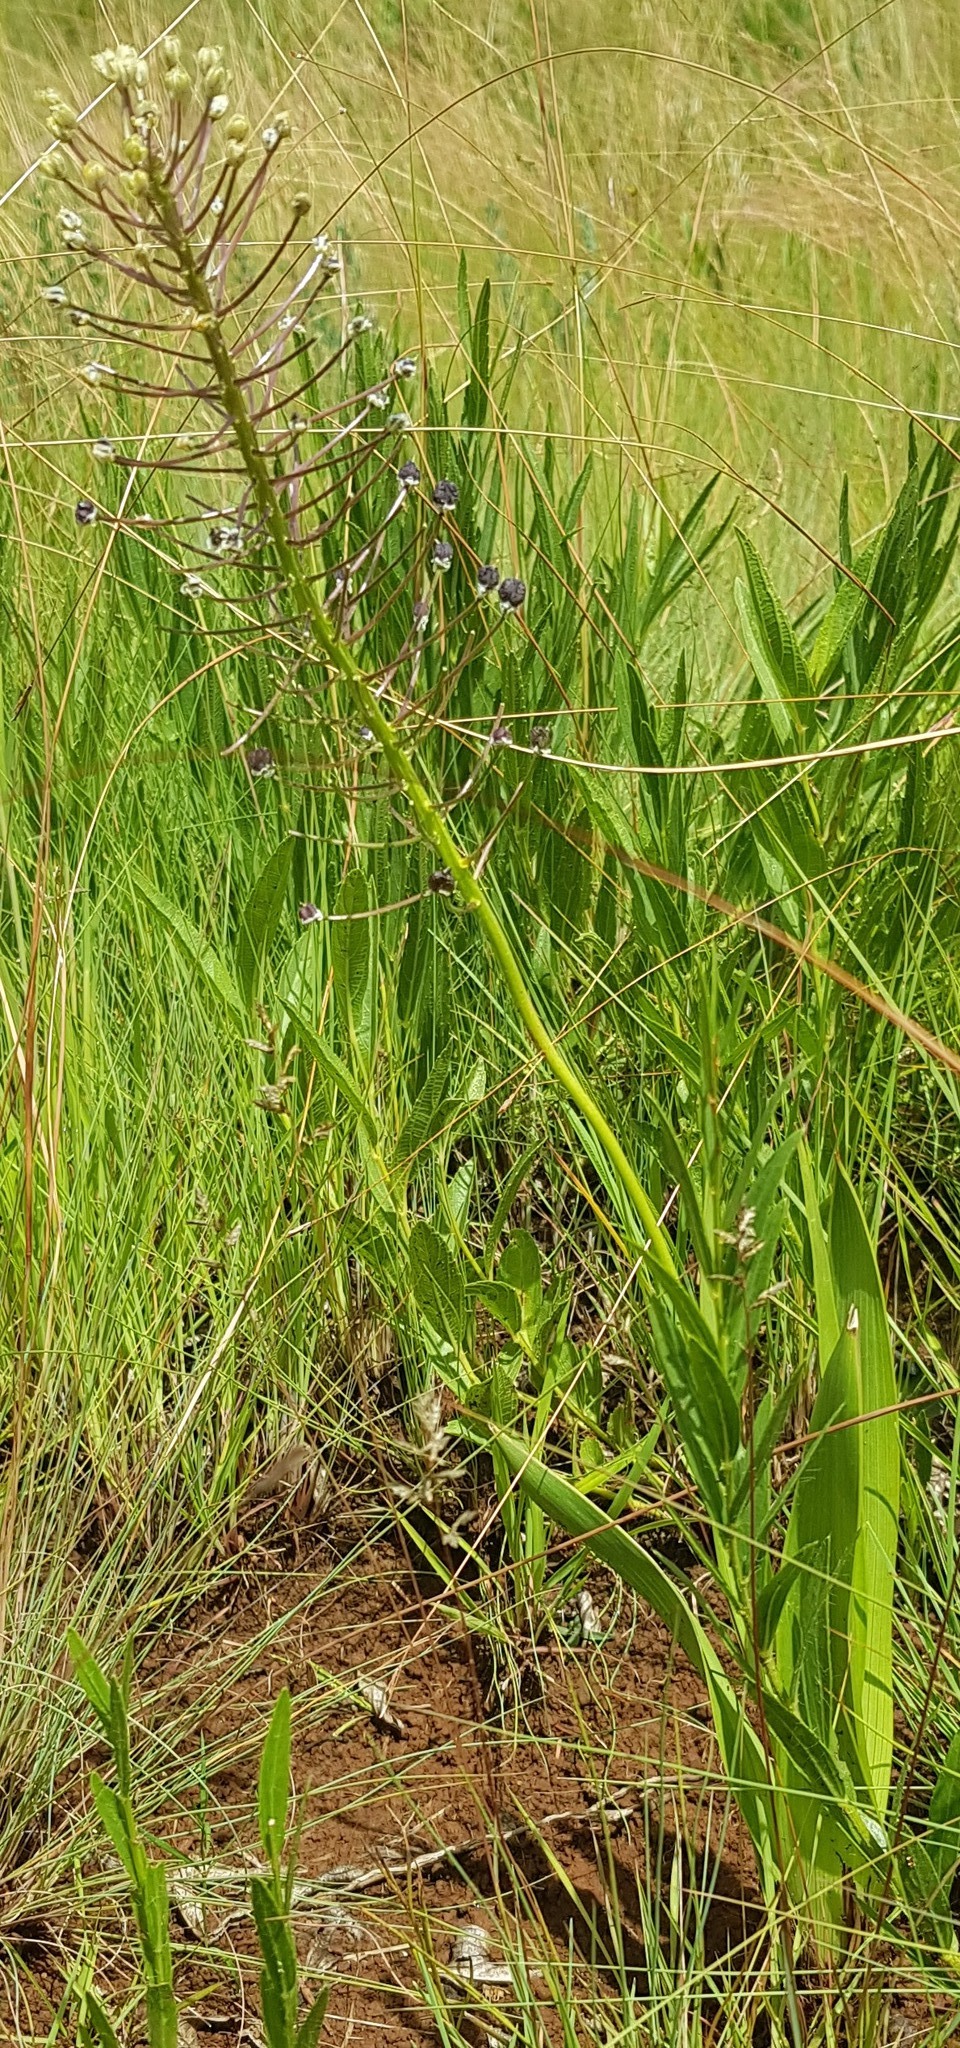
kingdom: Plantae
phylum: Tracheophyta
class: Liliopsida
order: Asparagales
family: Asparagaceae
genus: Schizocarphus
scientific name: Schizocarphus nervosus
